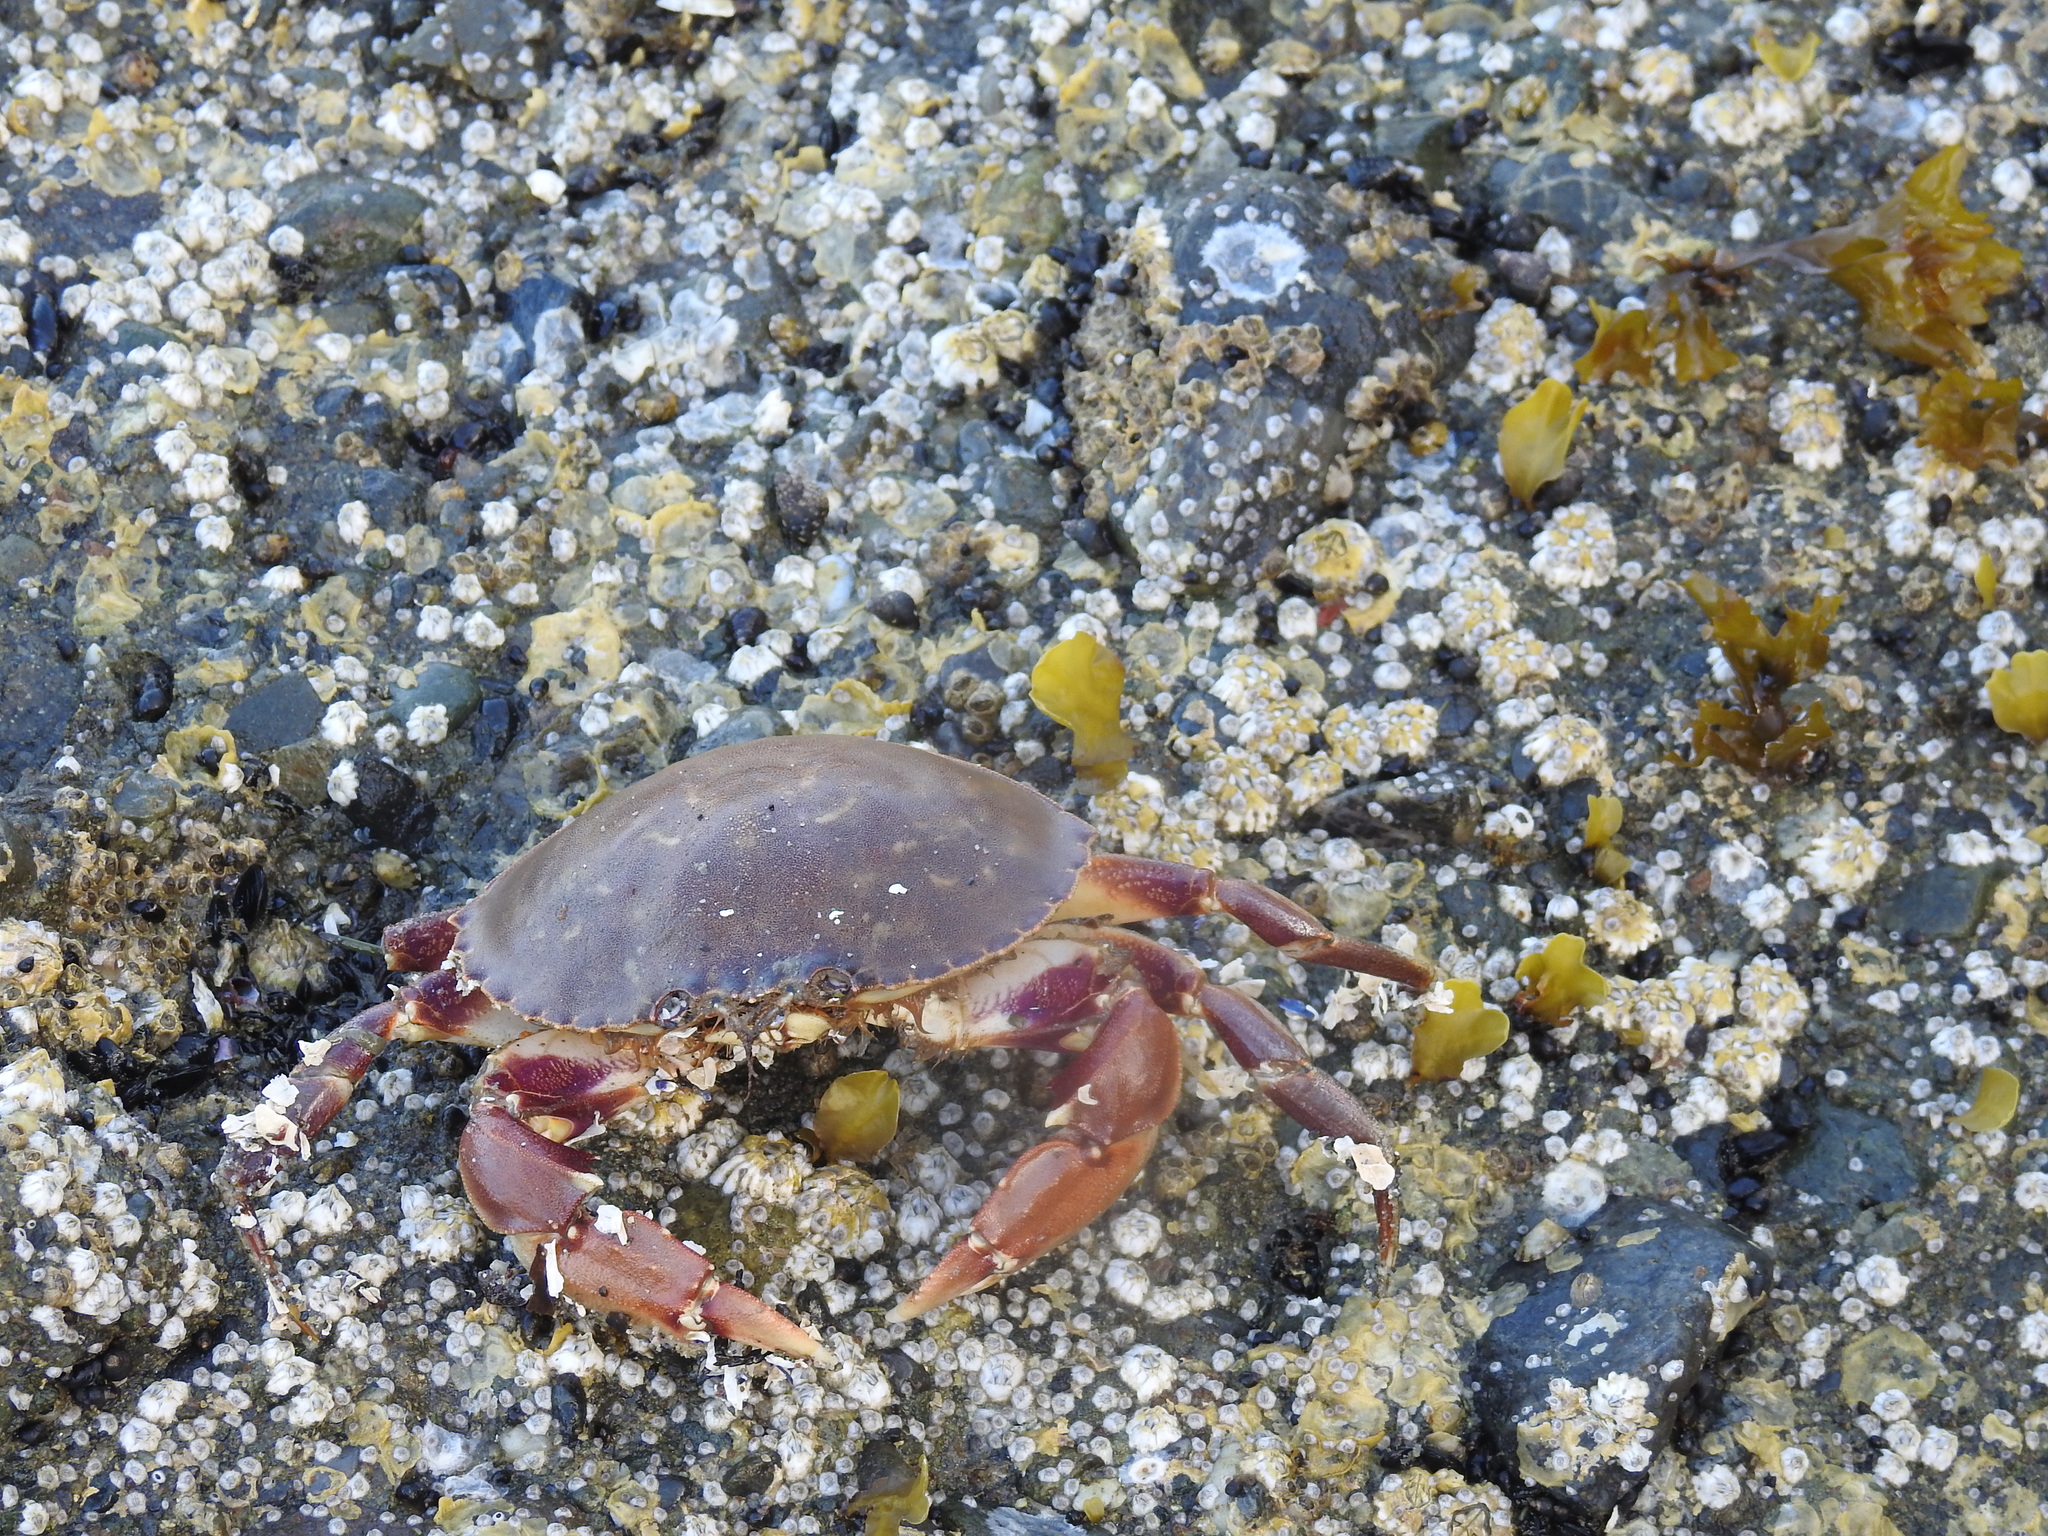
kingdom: Animalia
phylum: Arthropoda
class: Malacostraca
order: Decapoda
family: Cancridae
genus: Metacarcinus
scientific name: Metacarcinus gracilis
